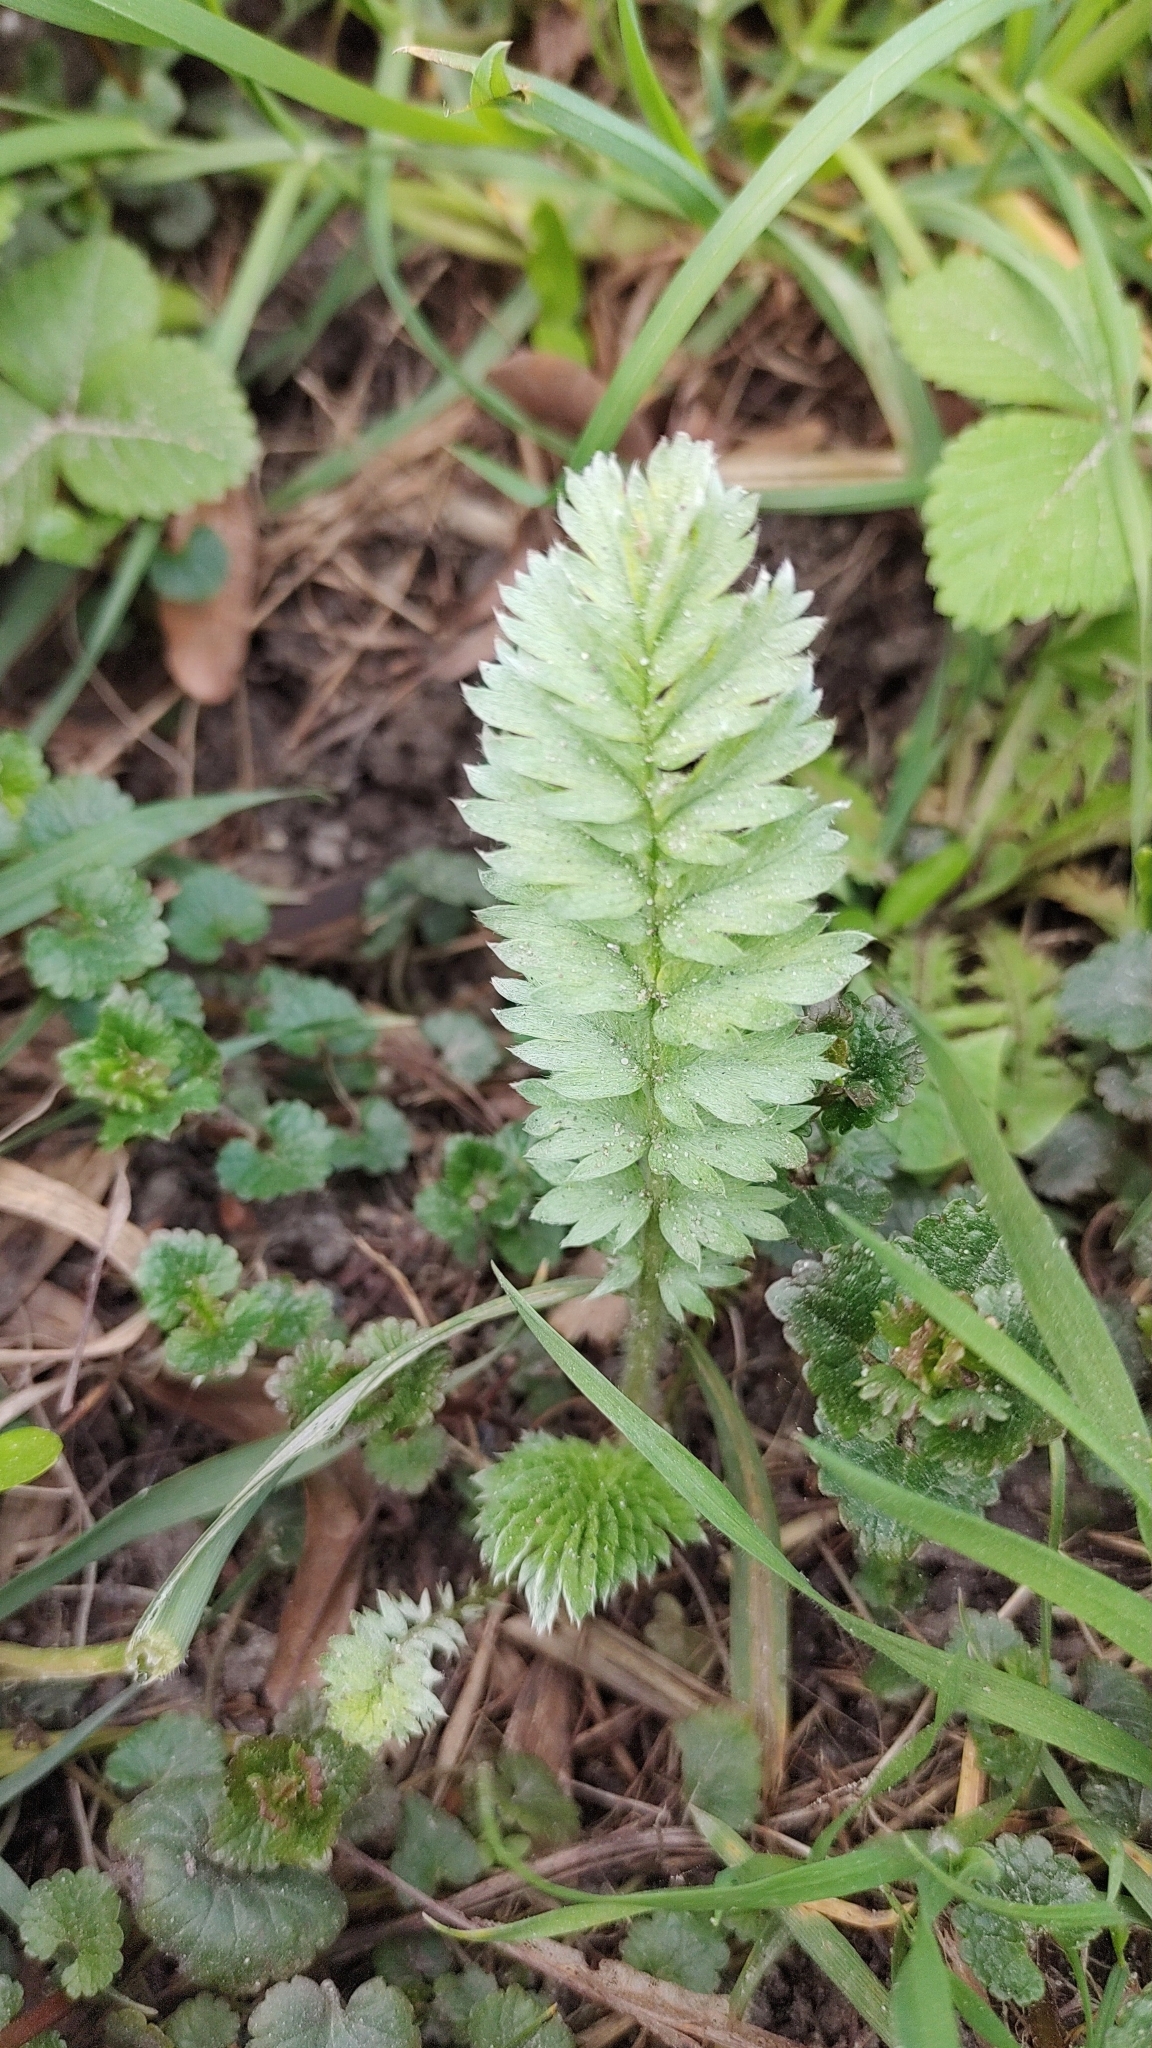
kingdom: Plantae
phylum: Tracheophyta
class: Magnoliopsida
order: Rosales
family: Rosaceae
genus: Argentina
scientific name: Argentina anserina
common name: Common silverweed
